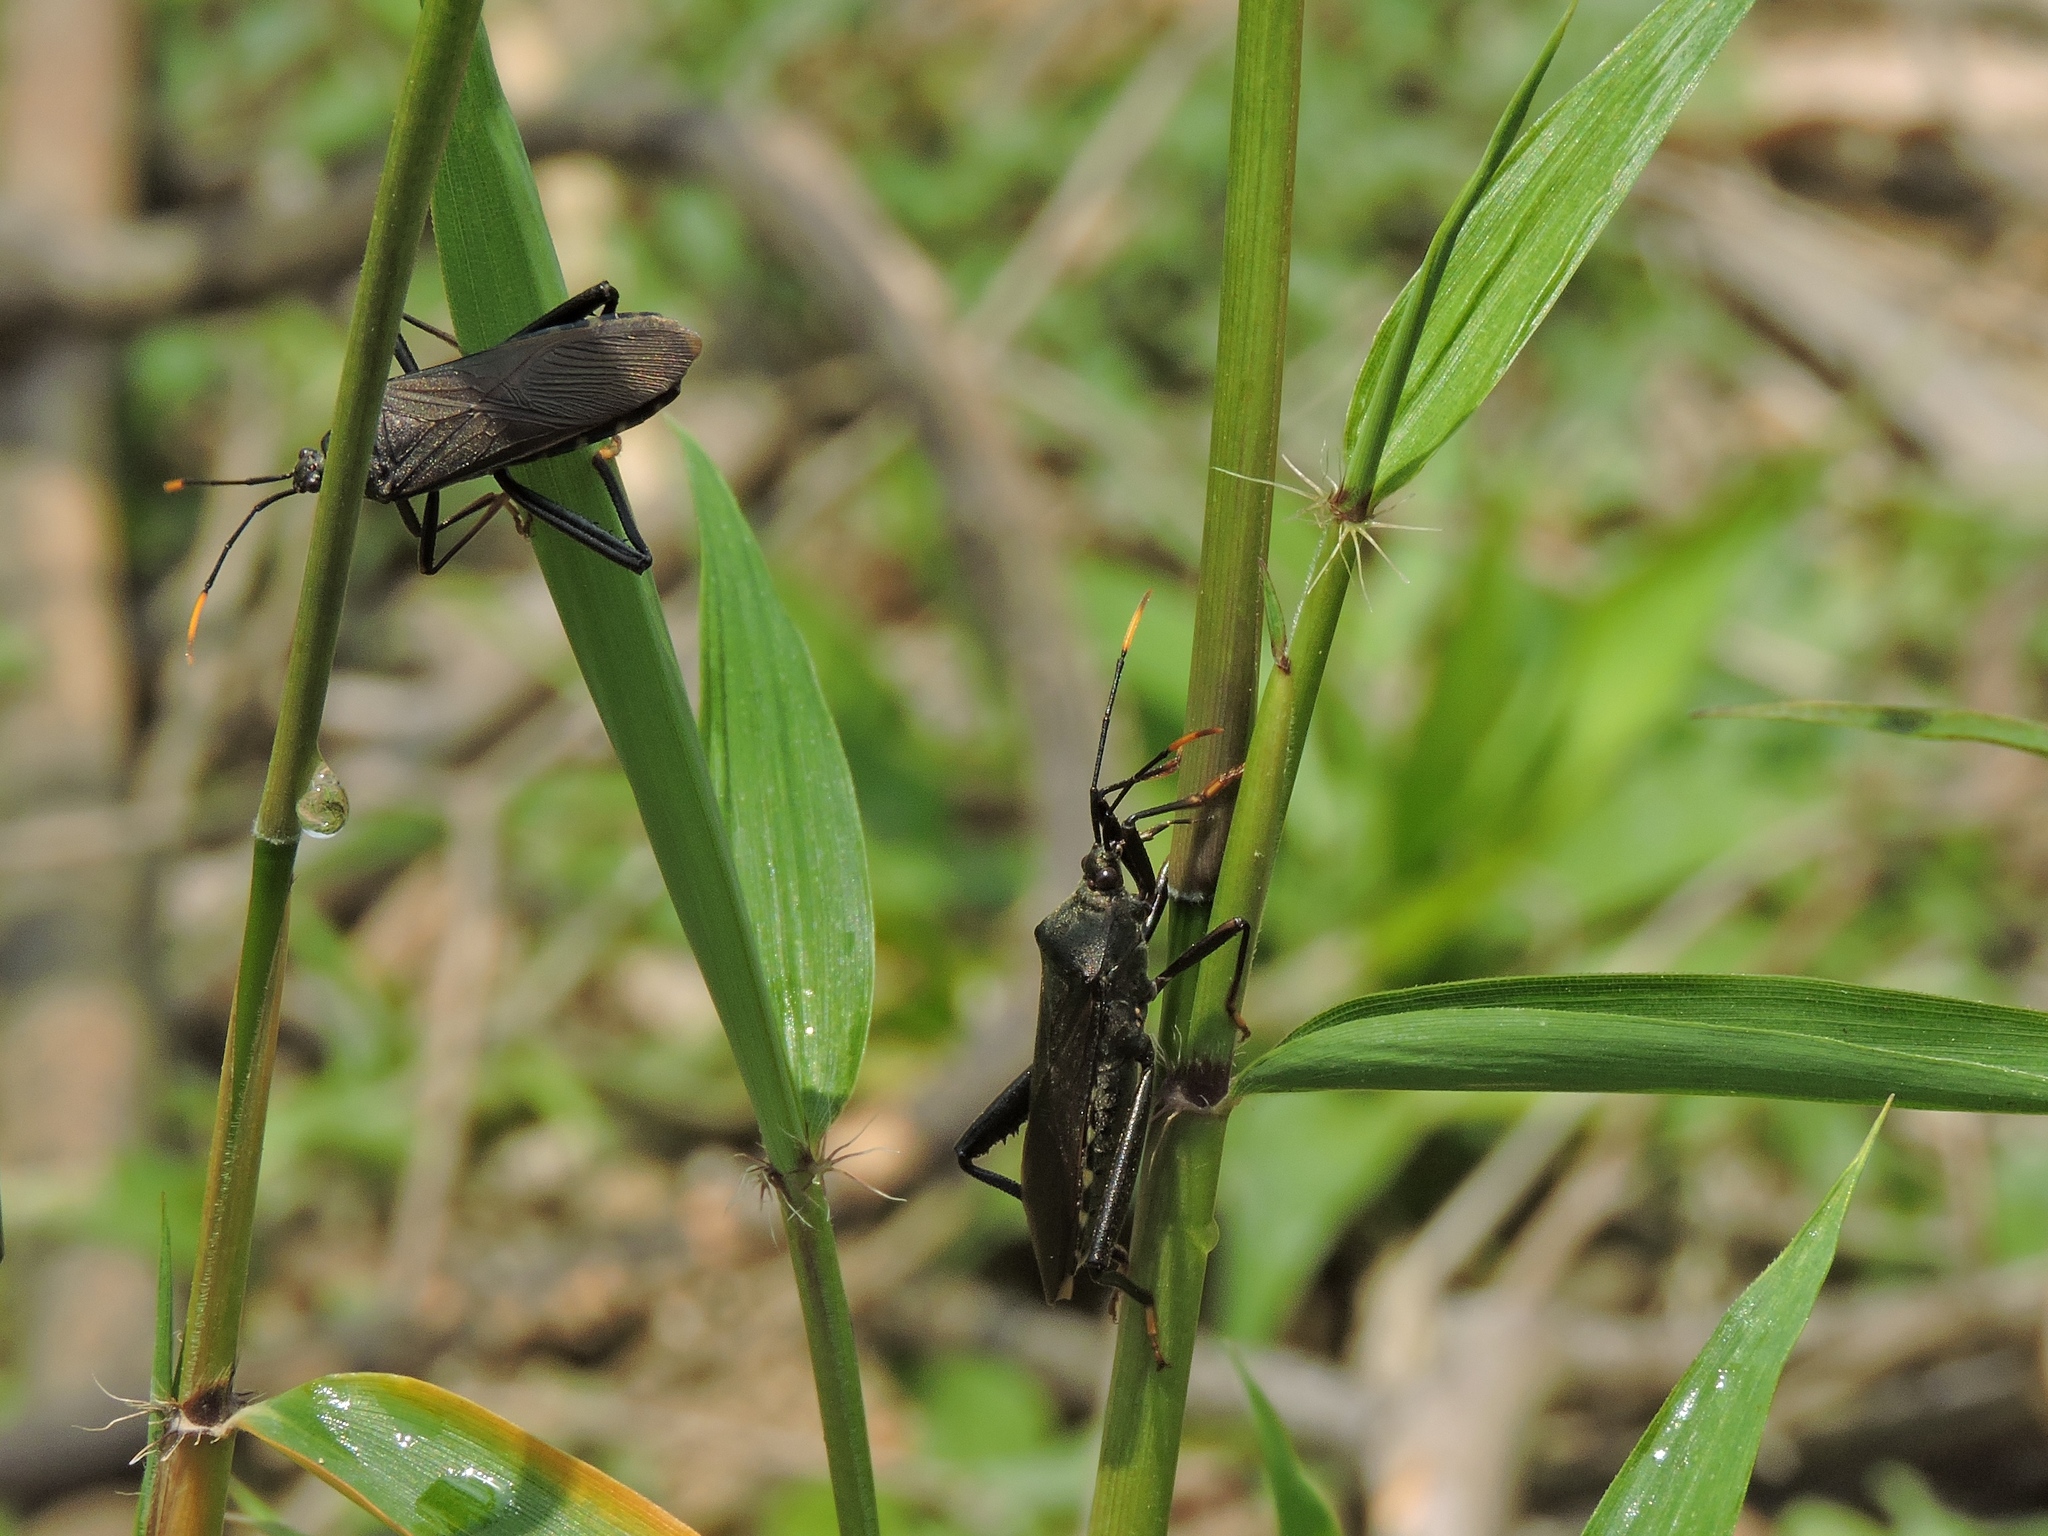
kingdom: Animalia
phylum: Arthropoda
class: Insecta
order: Hemiptera
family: Coreidae
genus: Notobitus
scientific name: Notobitus montanus
